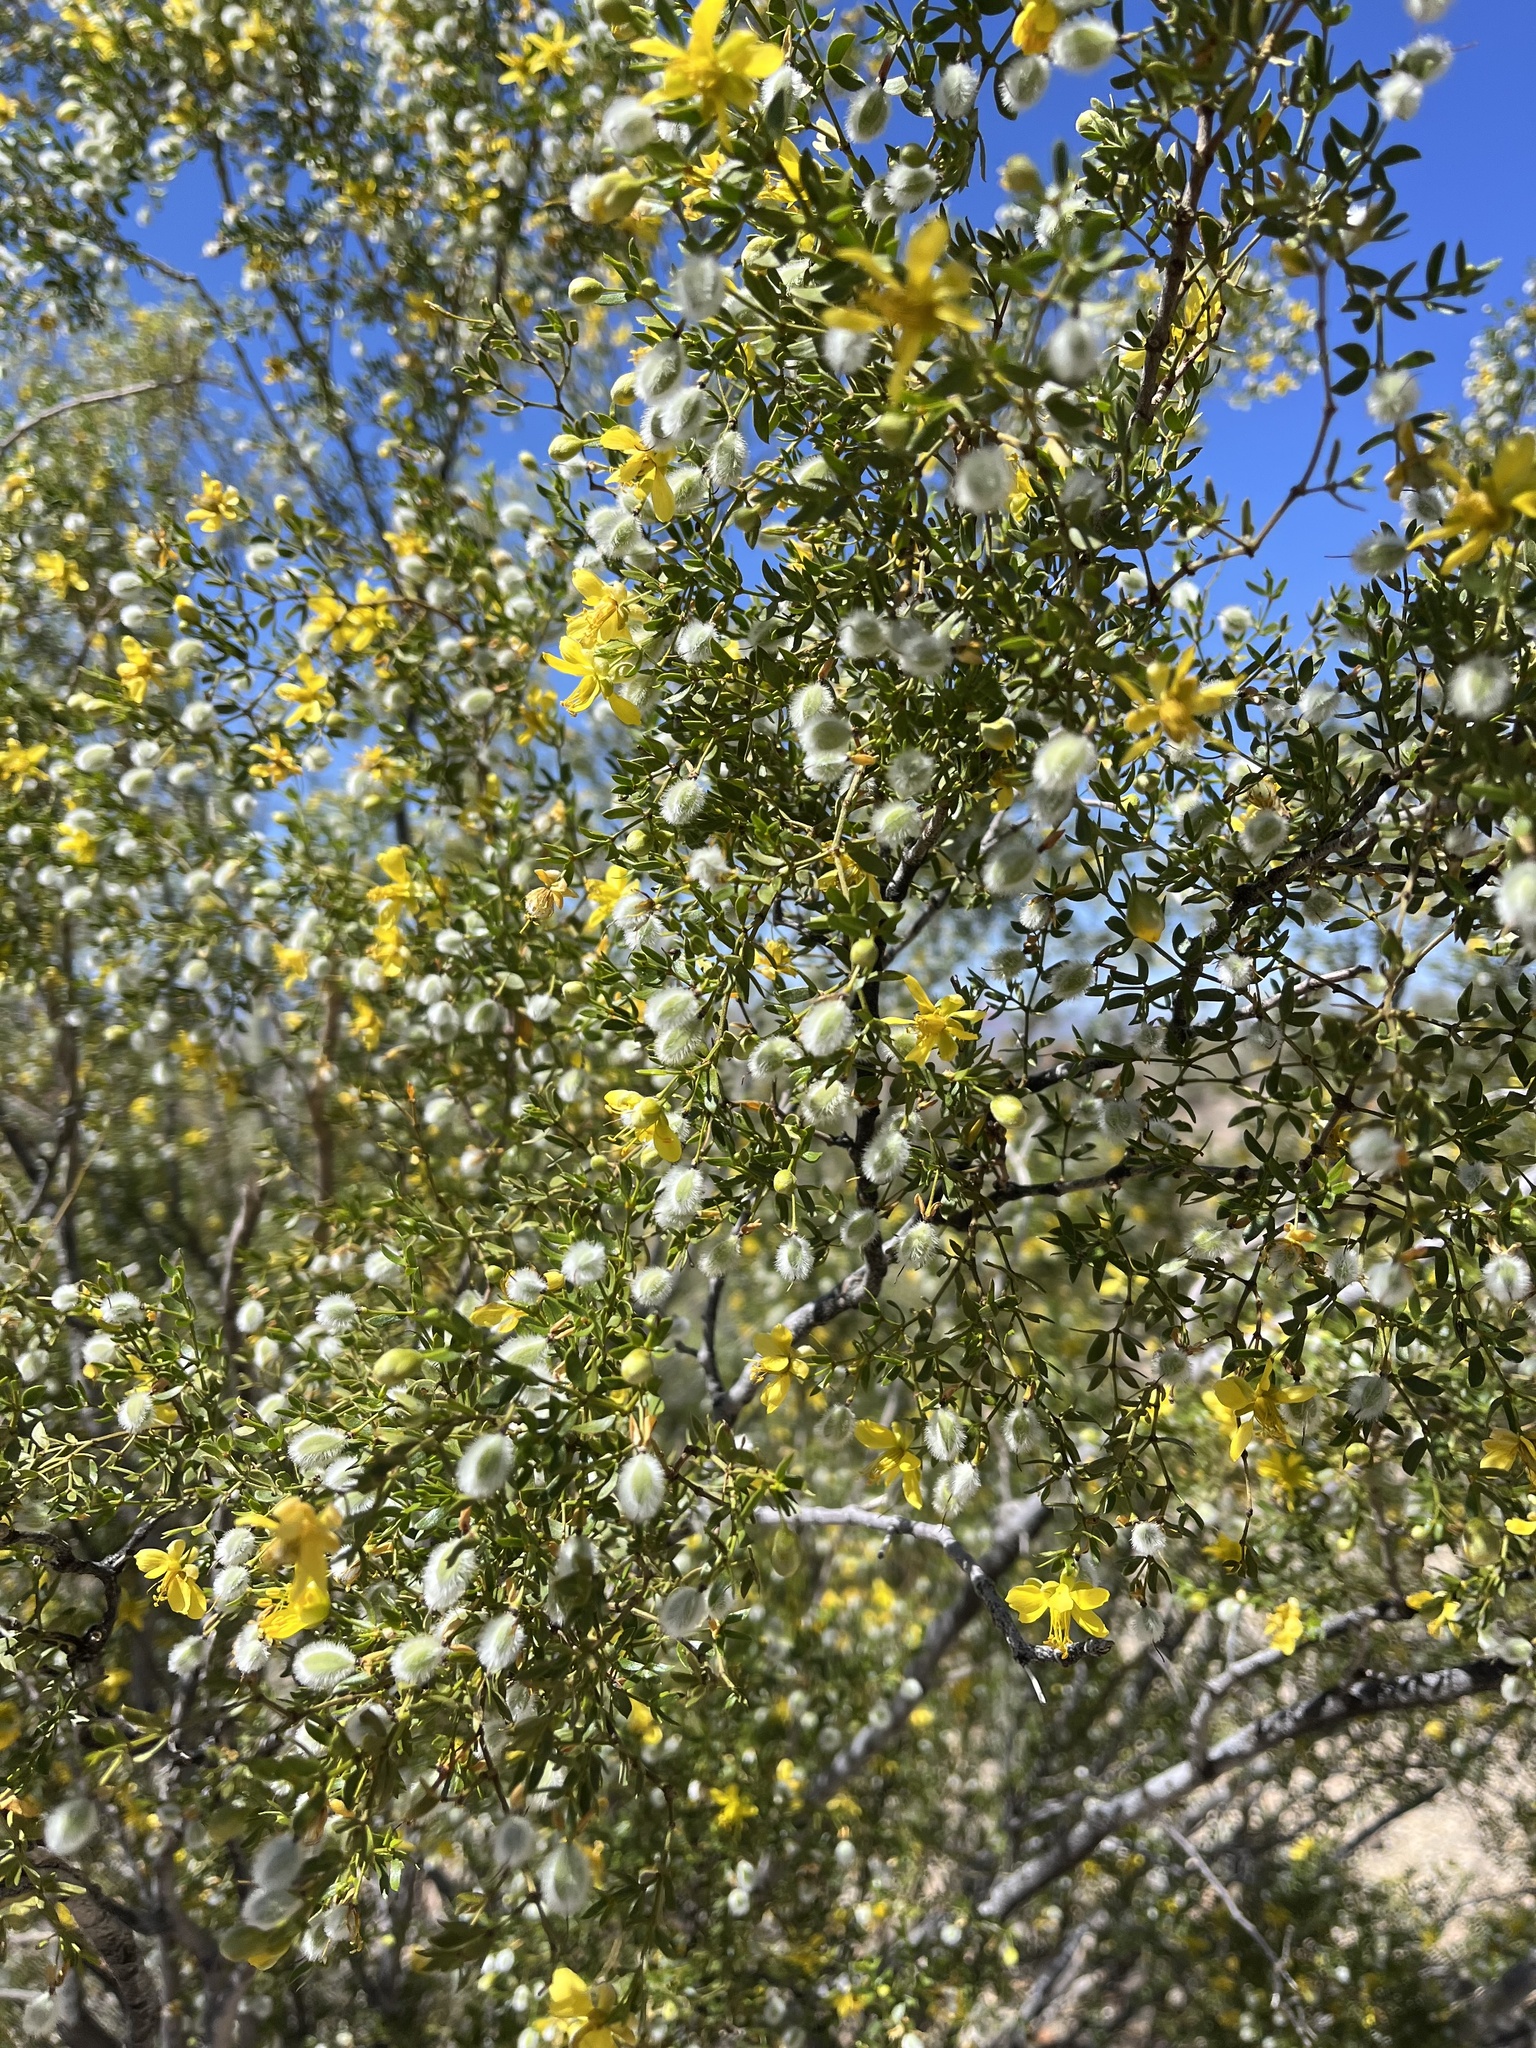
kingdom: Plantae
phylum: Tracheophyta
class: Magnoliopsida
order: Zygophyllales
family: Zygophyllaceae
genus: Larrea
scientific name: Larrea tridentata
